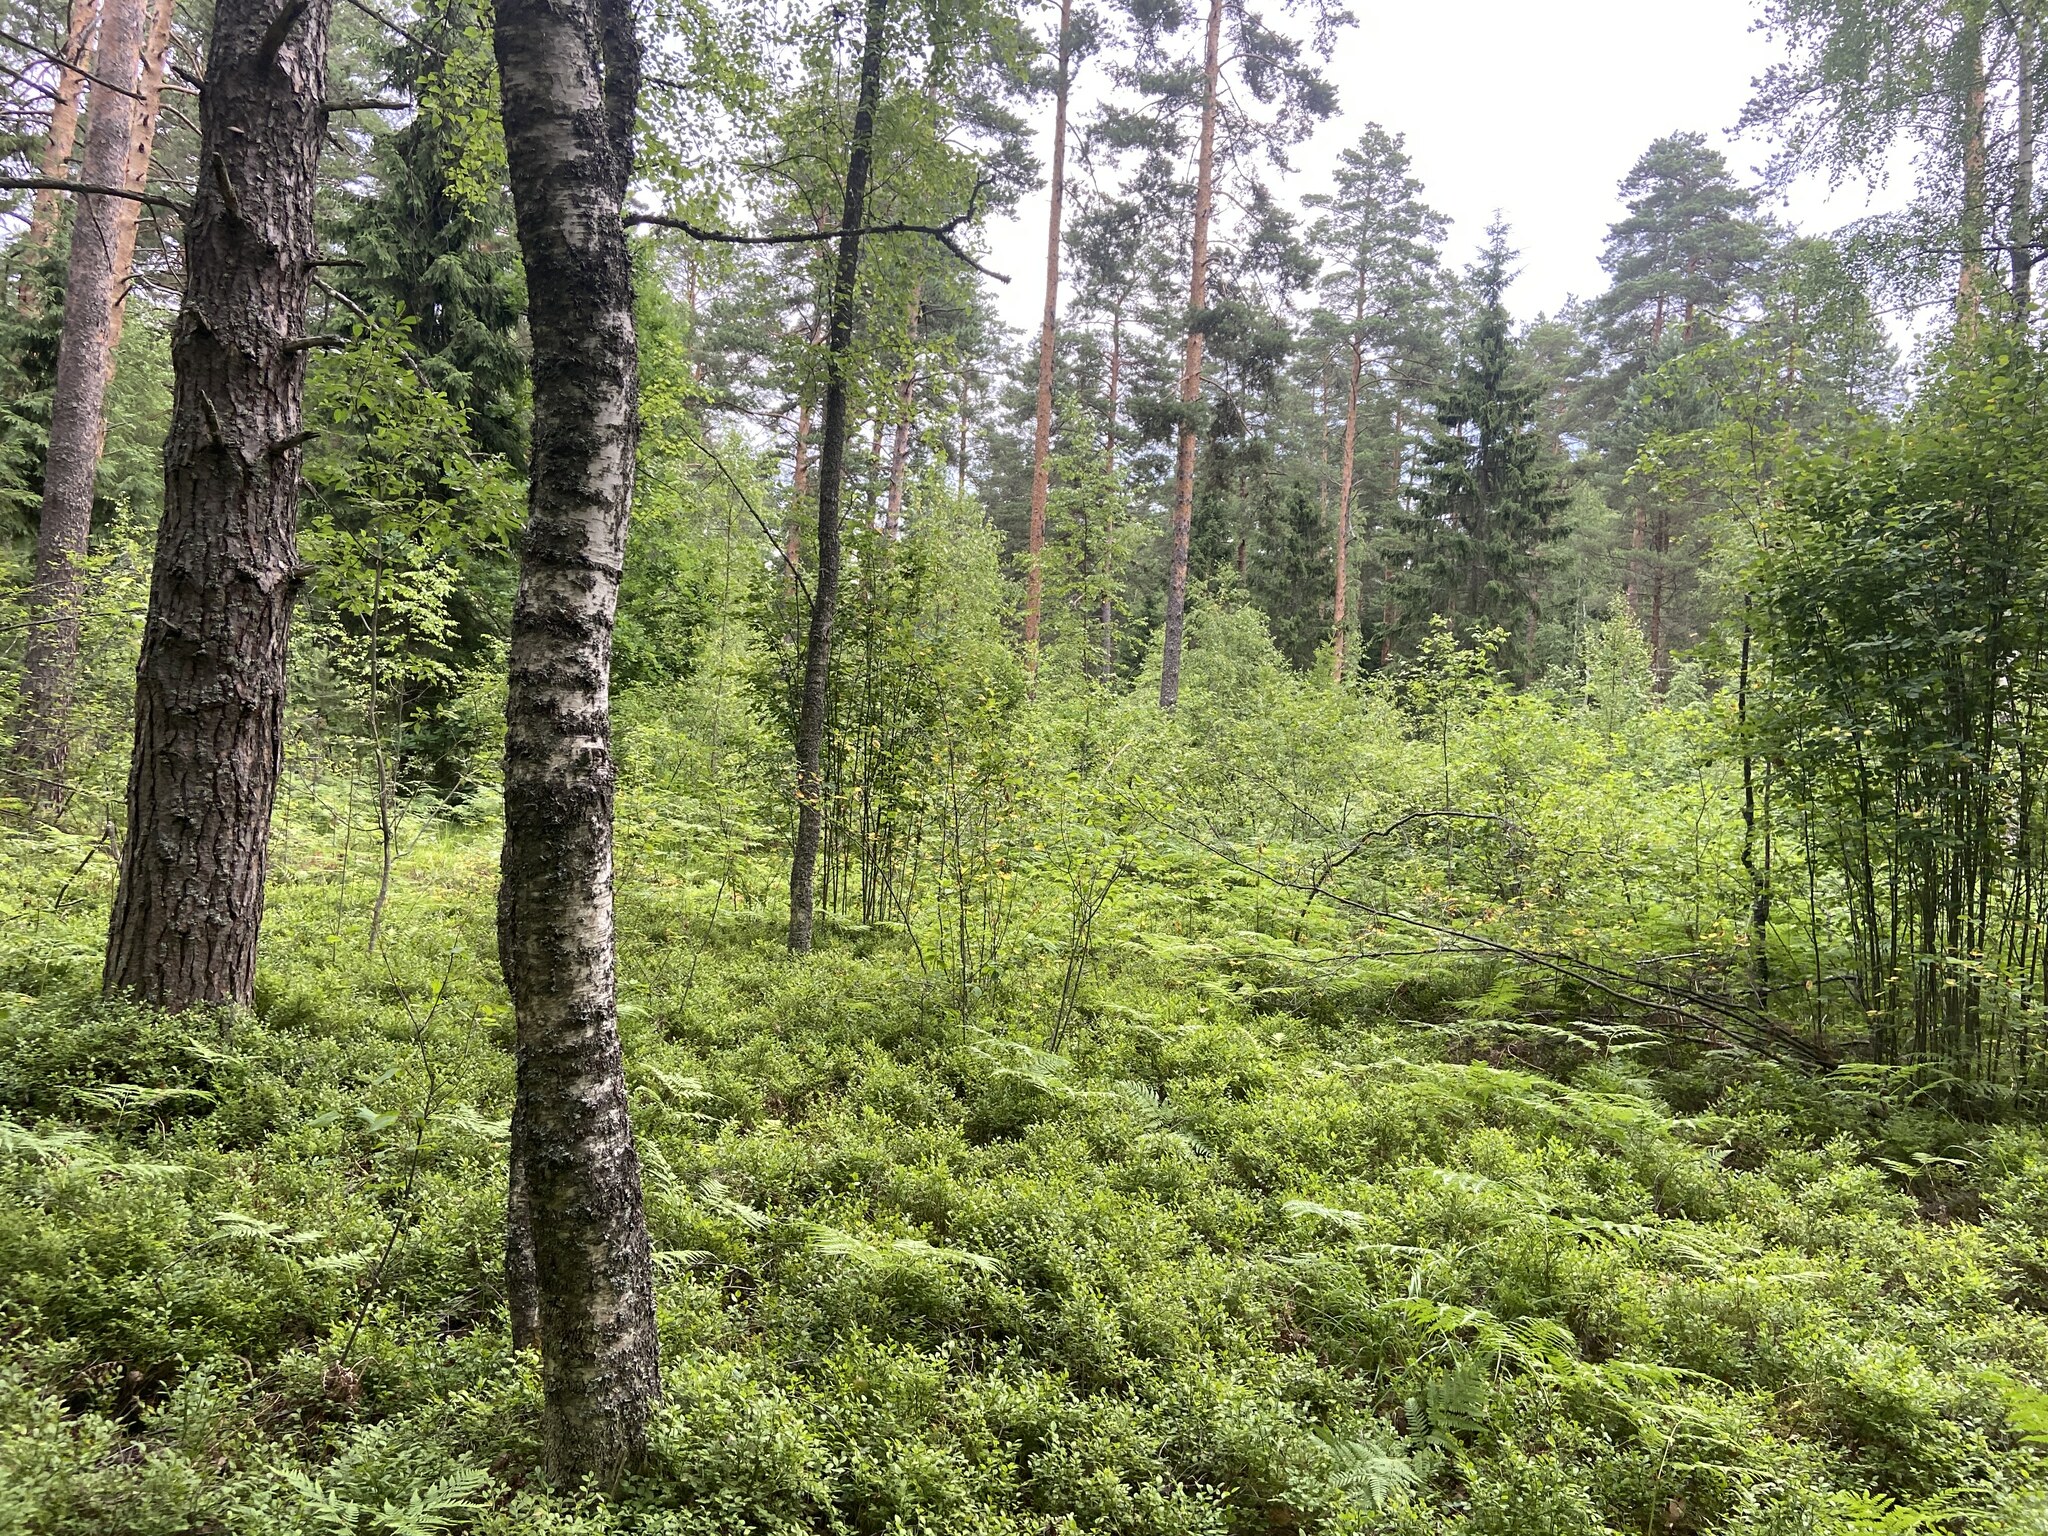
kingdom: Plantae
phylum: Tracheophyta
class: Magnoliopsida
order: Ericales
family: Ericaceae
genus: Vaccinium
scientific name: Vaccinium myrtillus
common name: Bilberry
